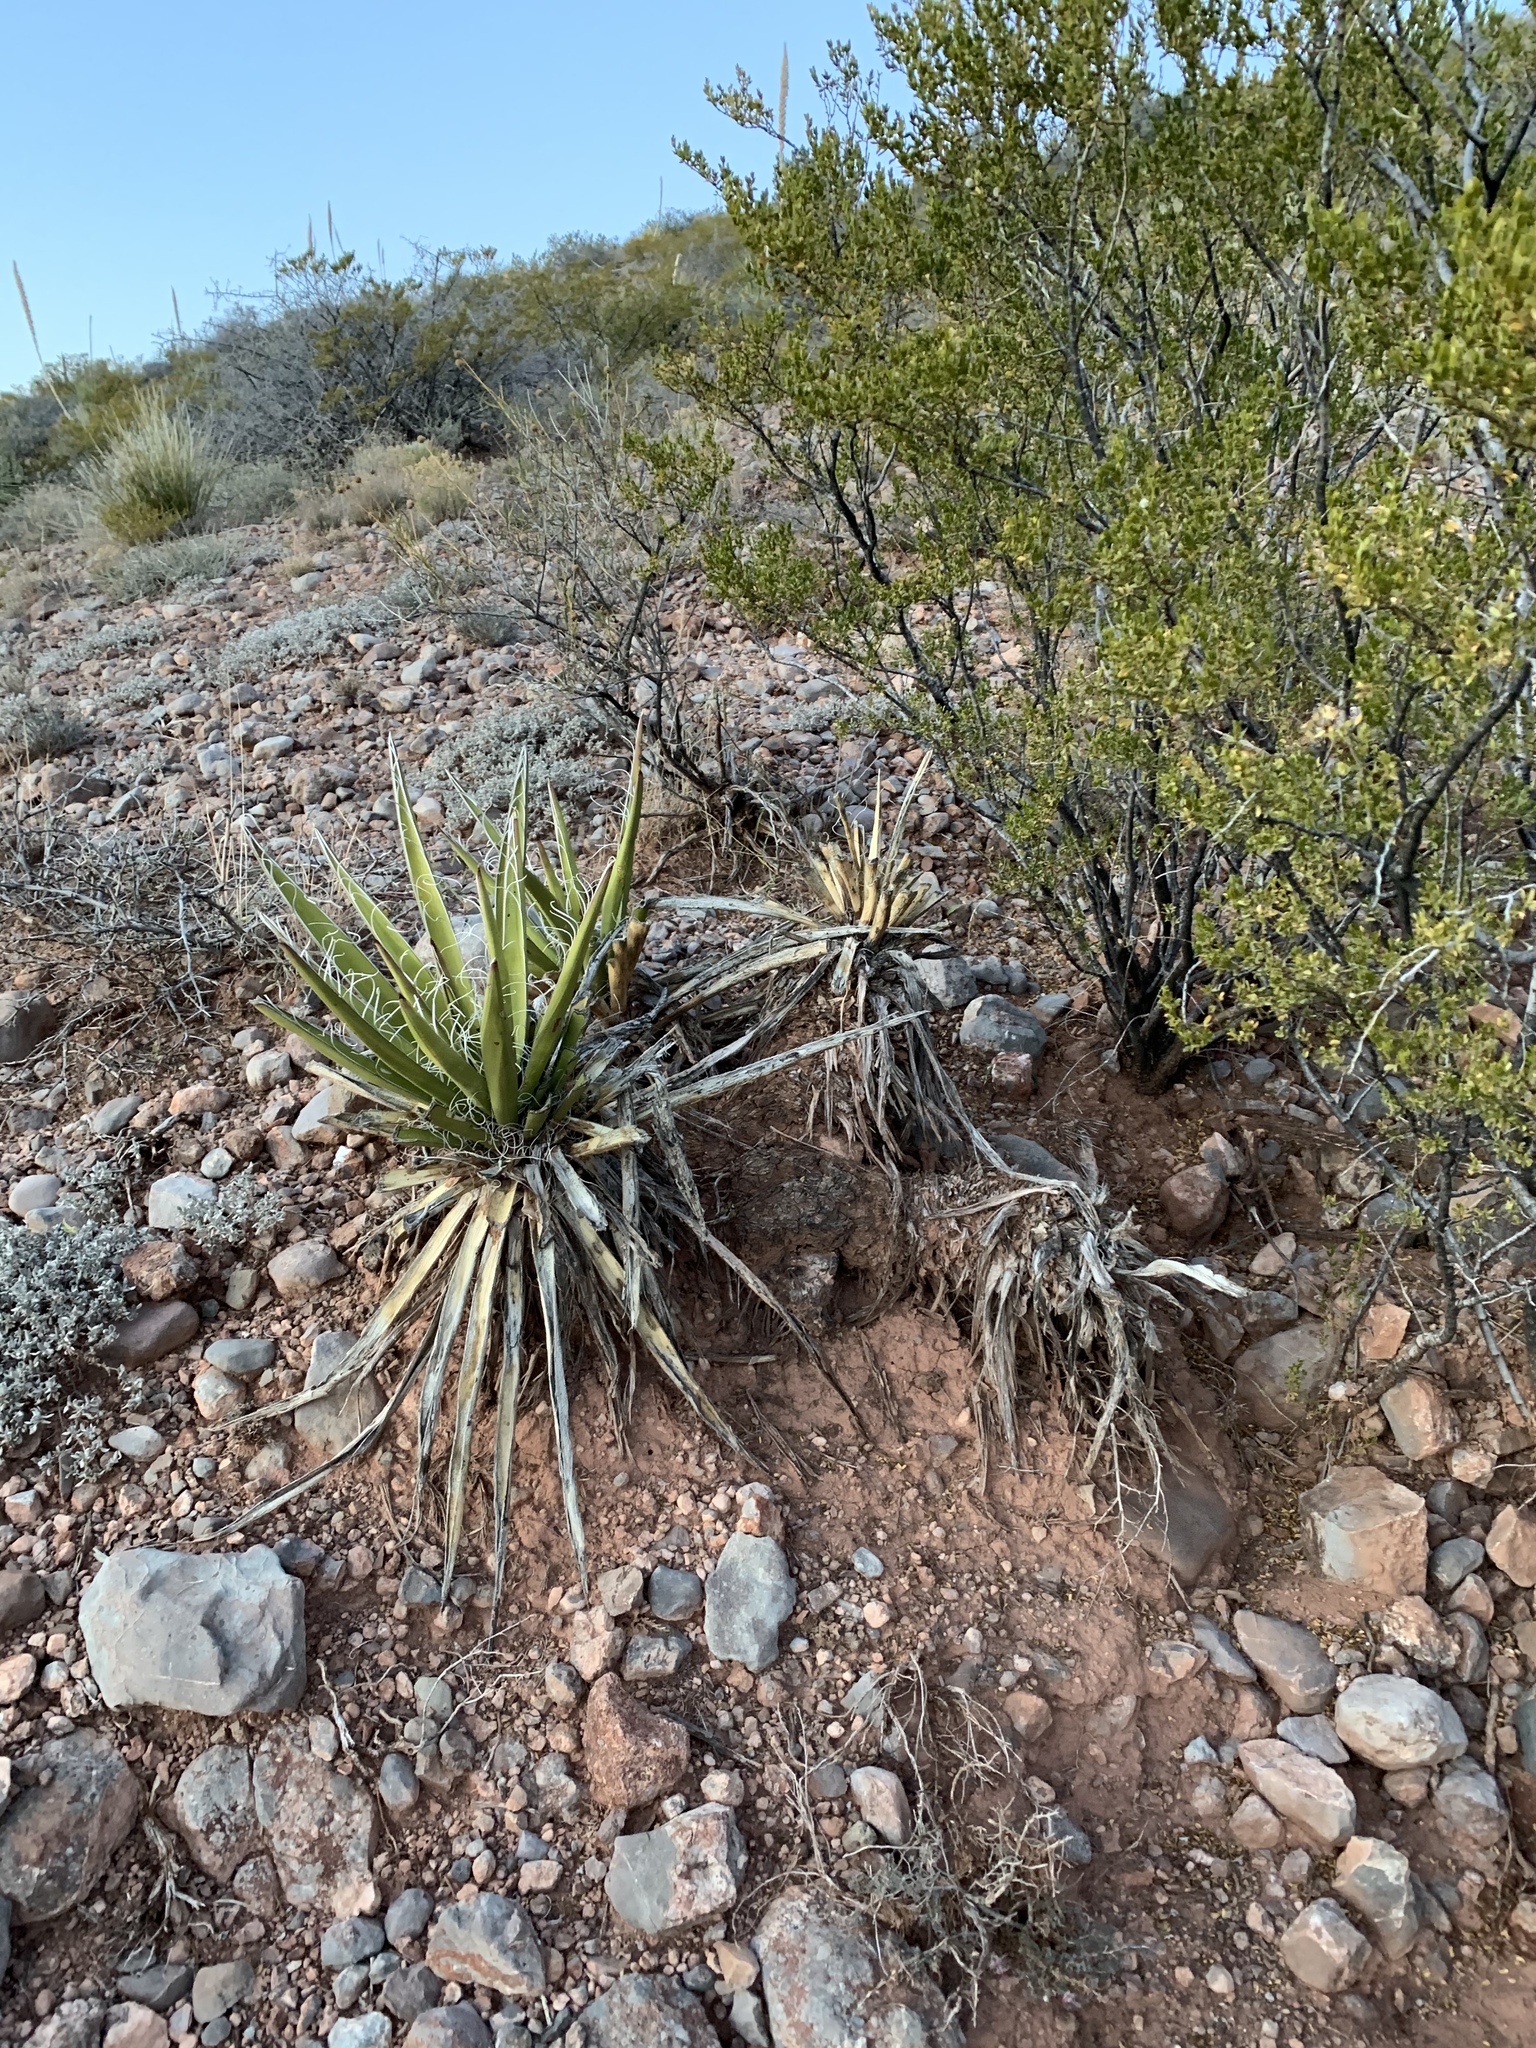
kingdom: Plantae
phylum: Tracheophyta
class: Liliopsida
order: Asparagales
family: Asparagaceae
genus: Yucca
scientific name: Yucca baccata
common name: Banana yucca
